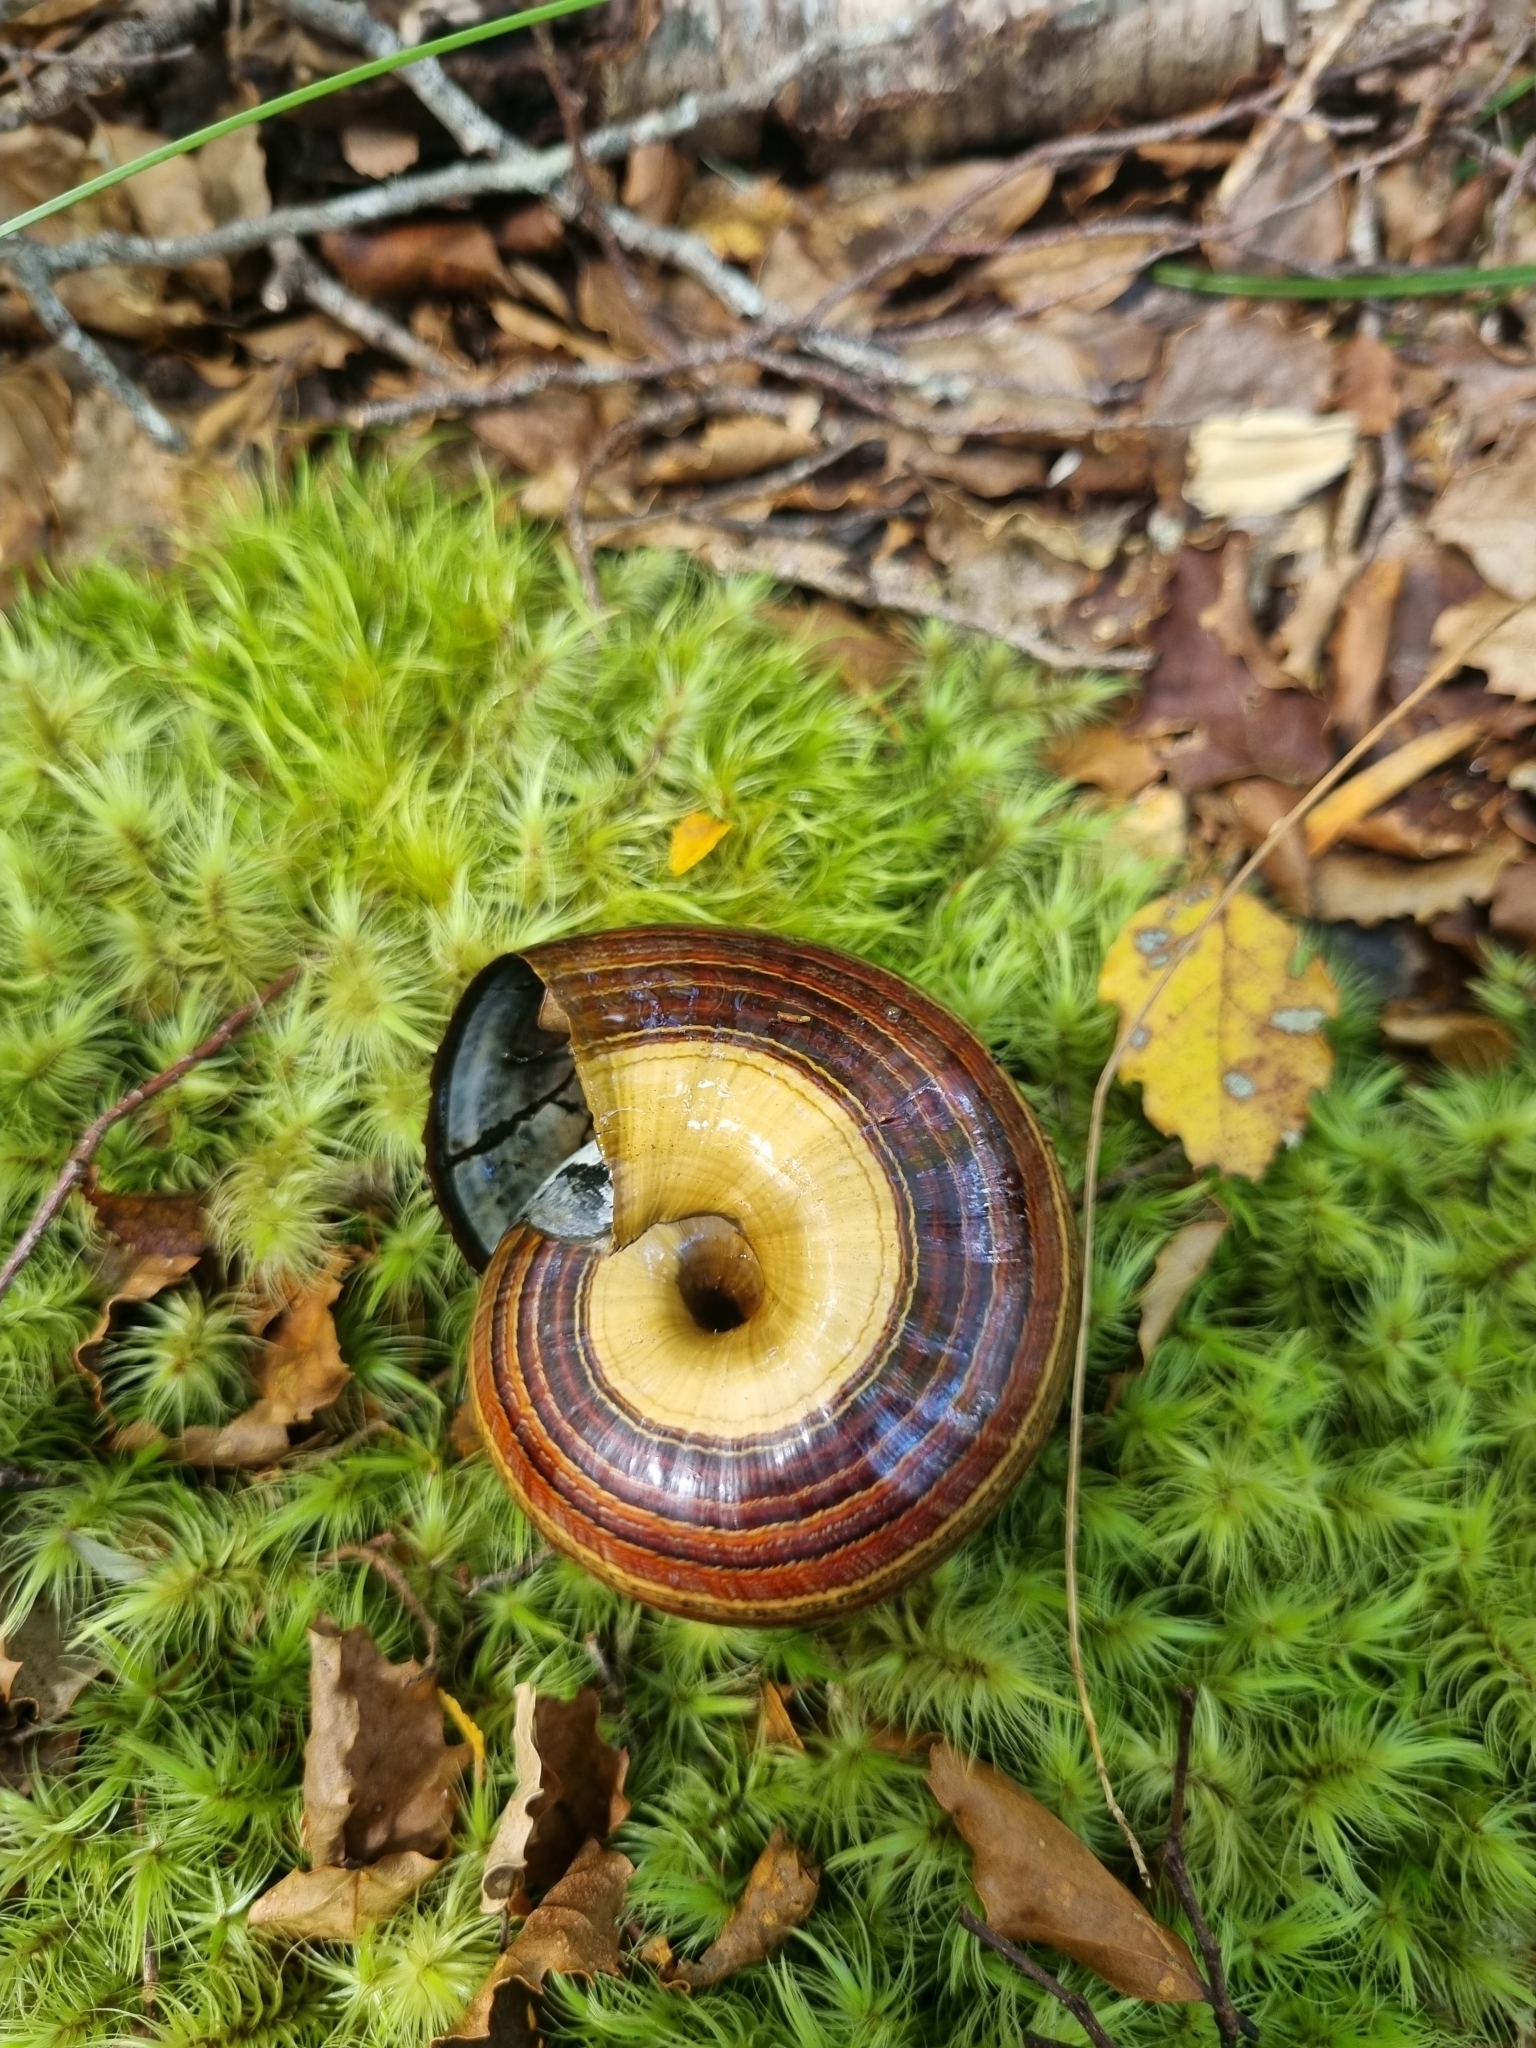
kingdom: Animalia
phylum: Mollusca
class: Gastropoda
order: Stylommatophora
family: Rhytididae
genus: Powelliphanta
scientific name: Powelliphanta hochstetteri
